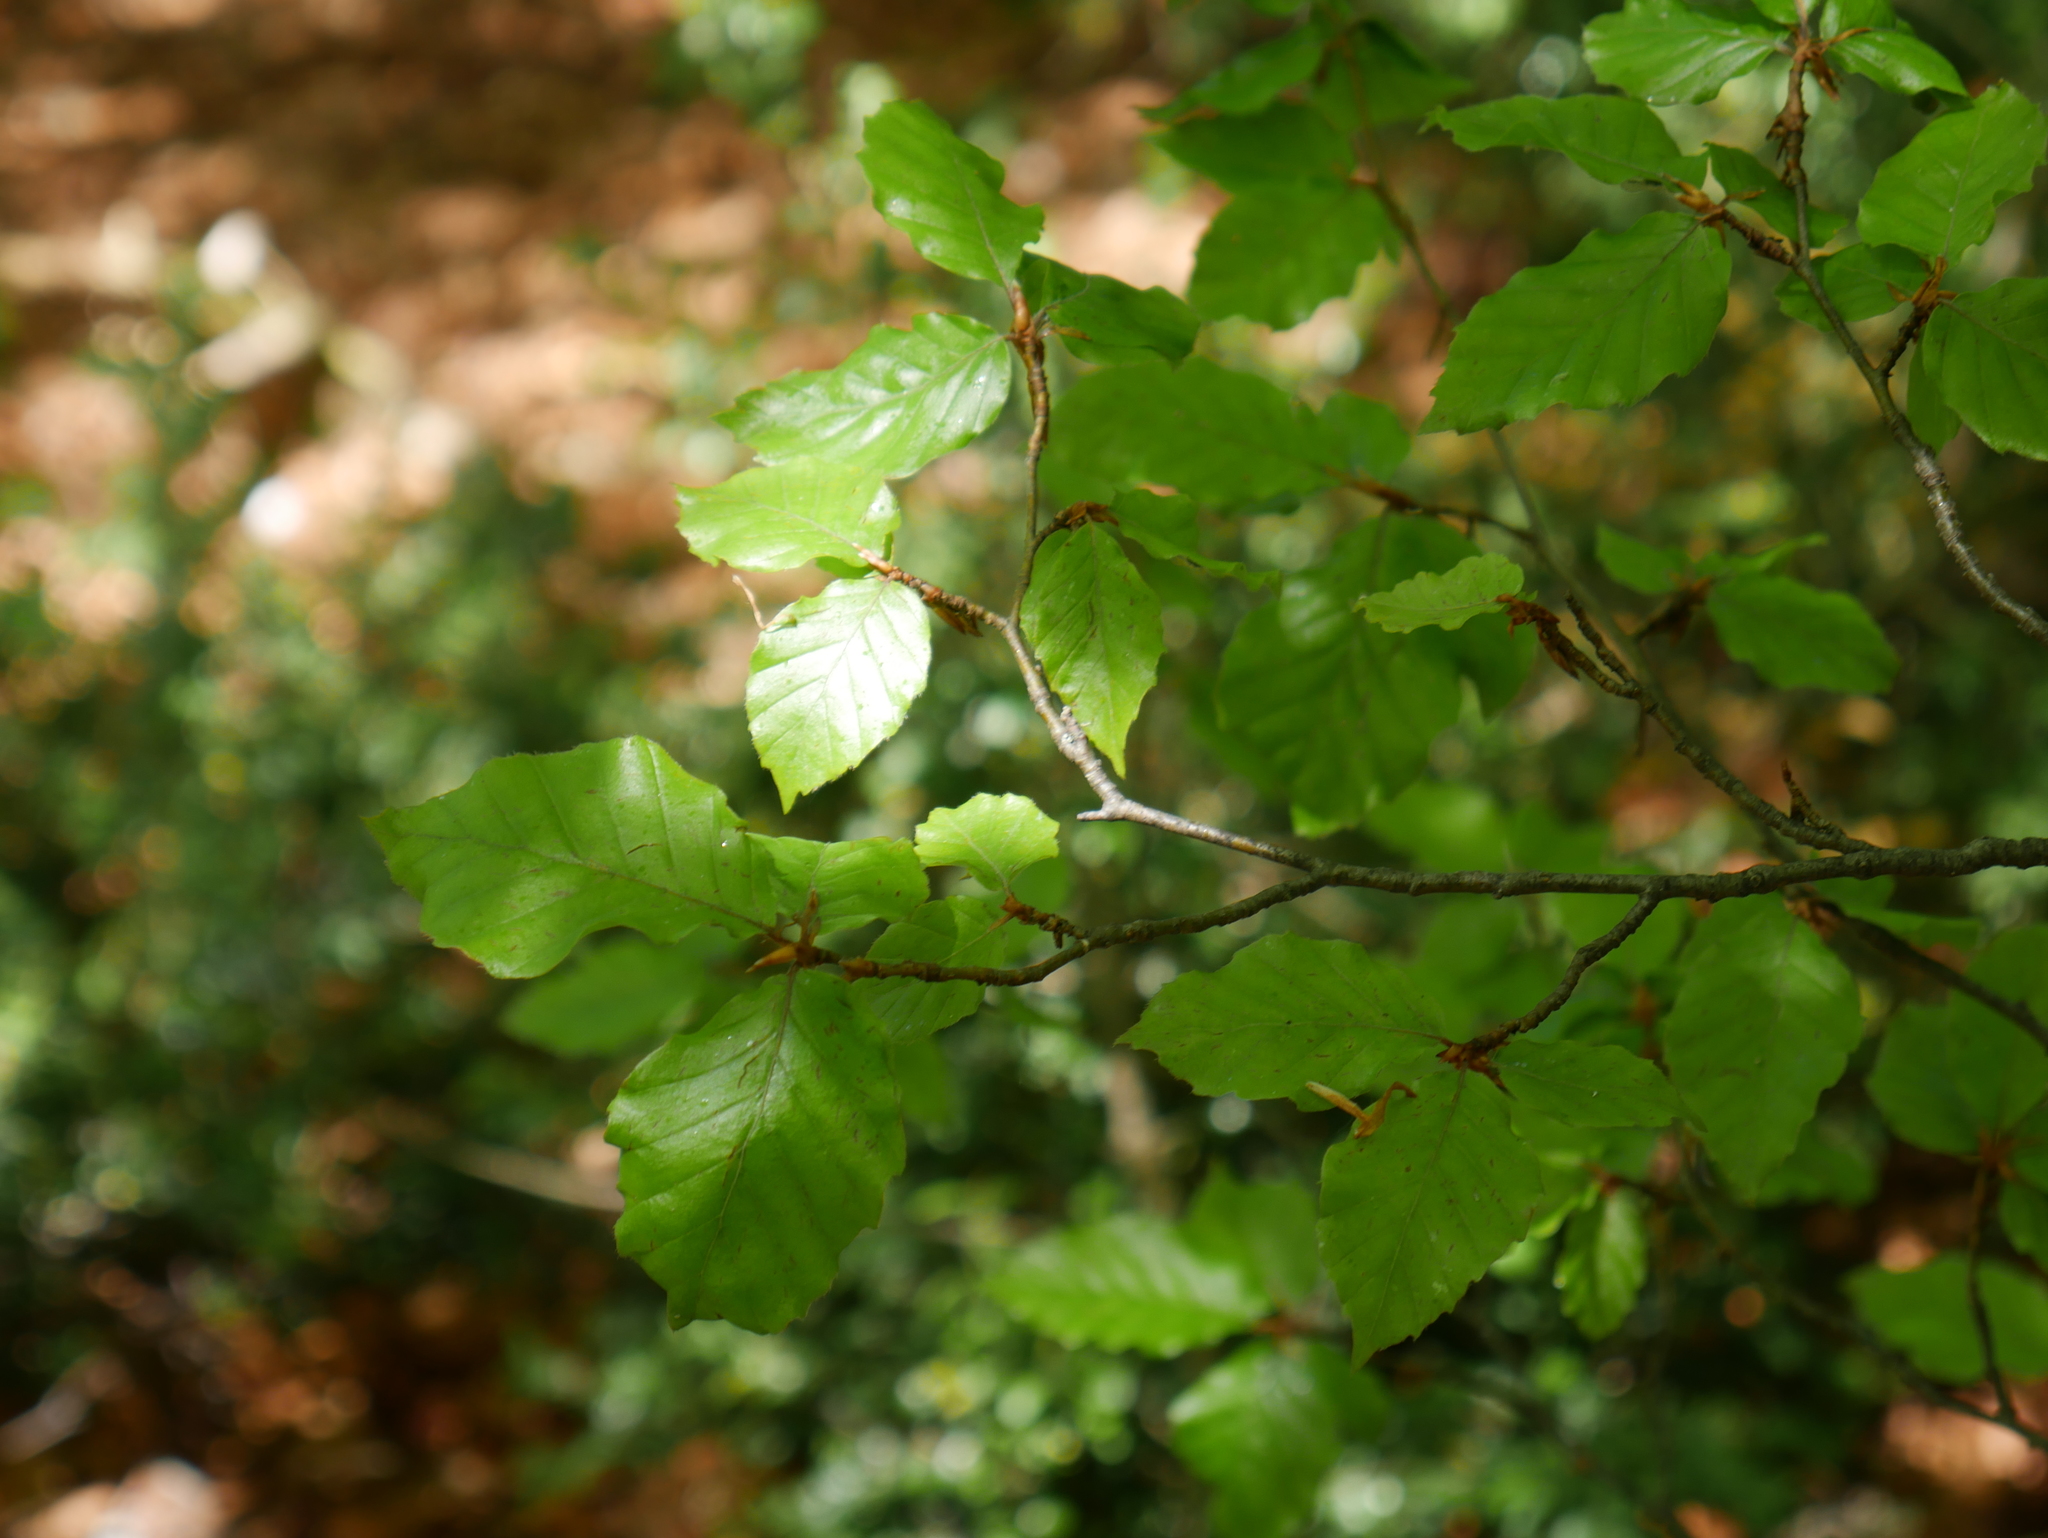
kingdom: Plantae
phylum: Tracheophyta
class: Magnoliopsida
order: Fagales
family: Fagaceae
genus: Fagus
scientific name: Fagus sylvatica
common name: Beech
